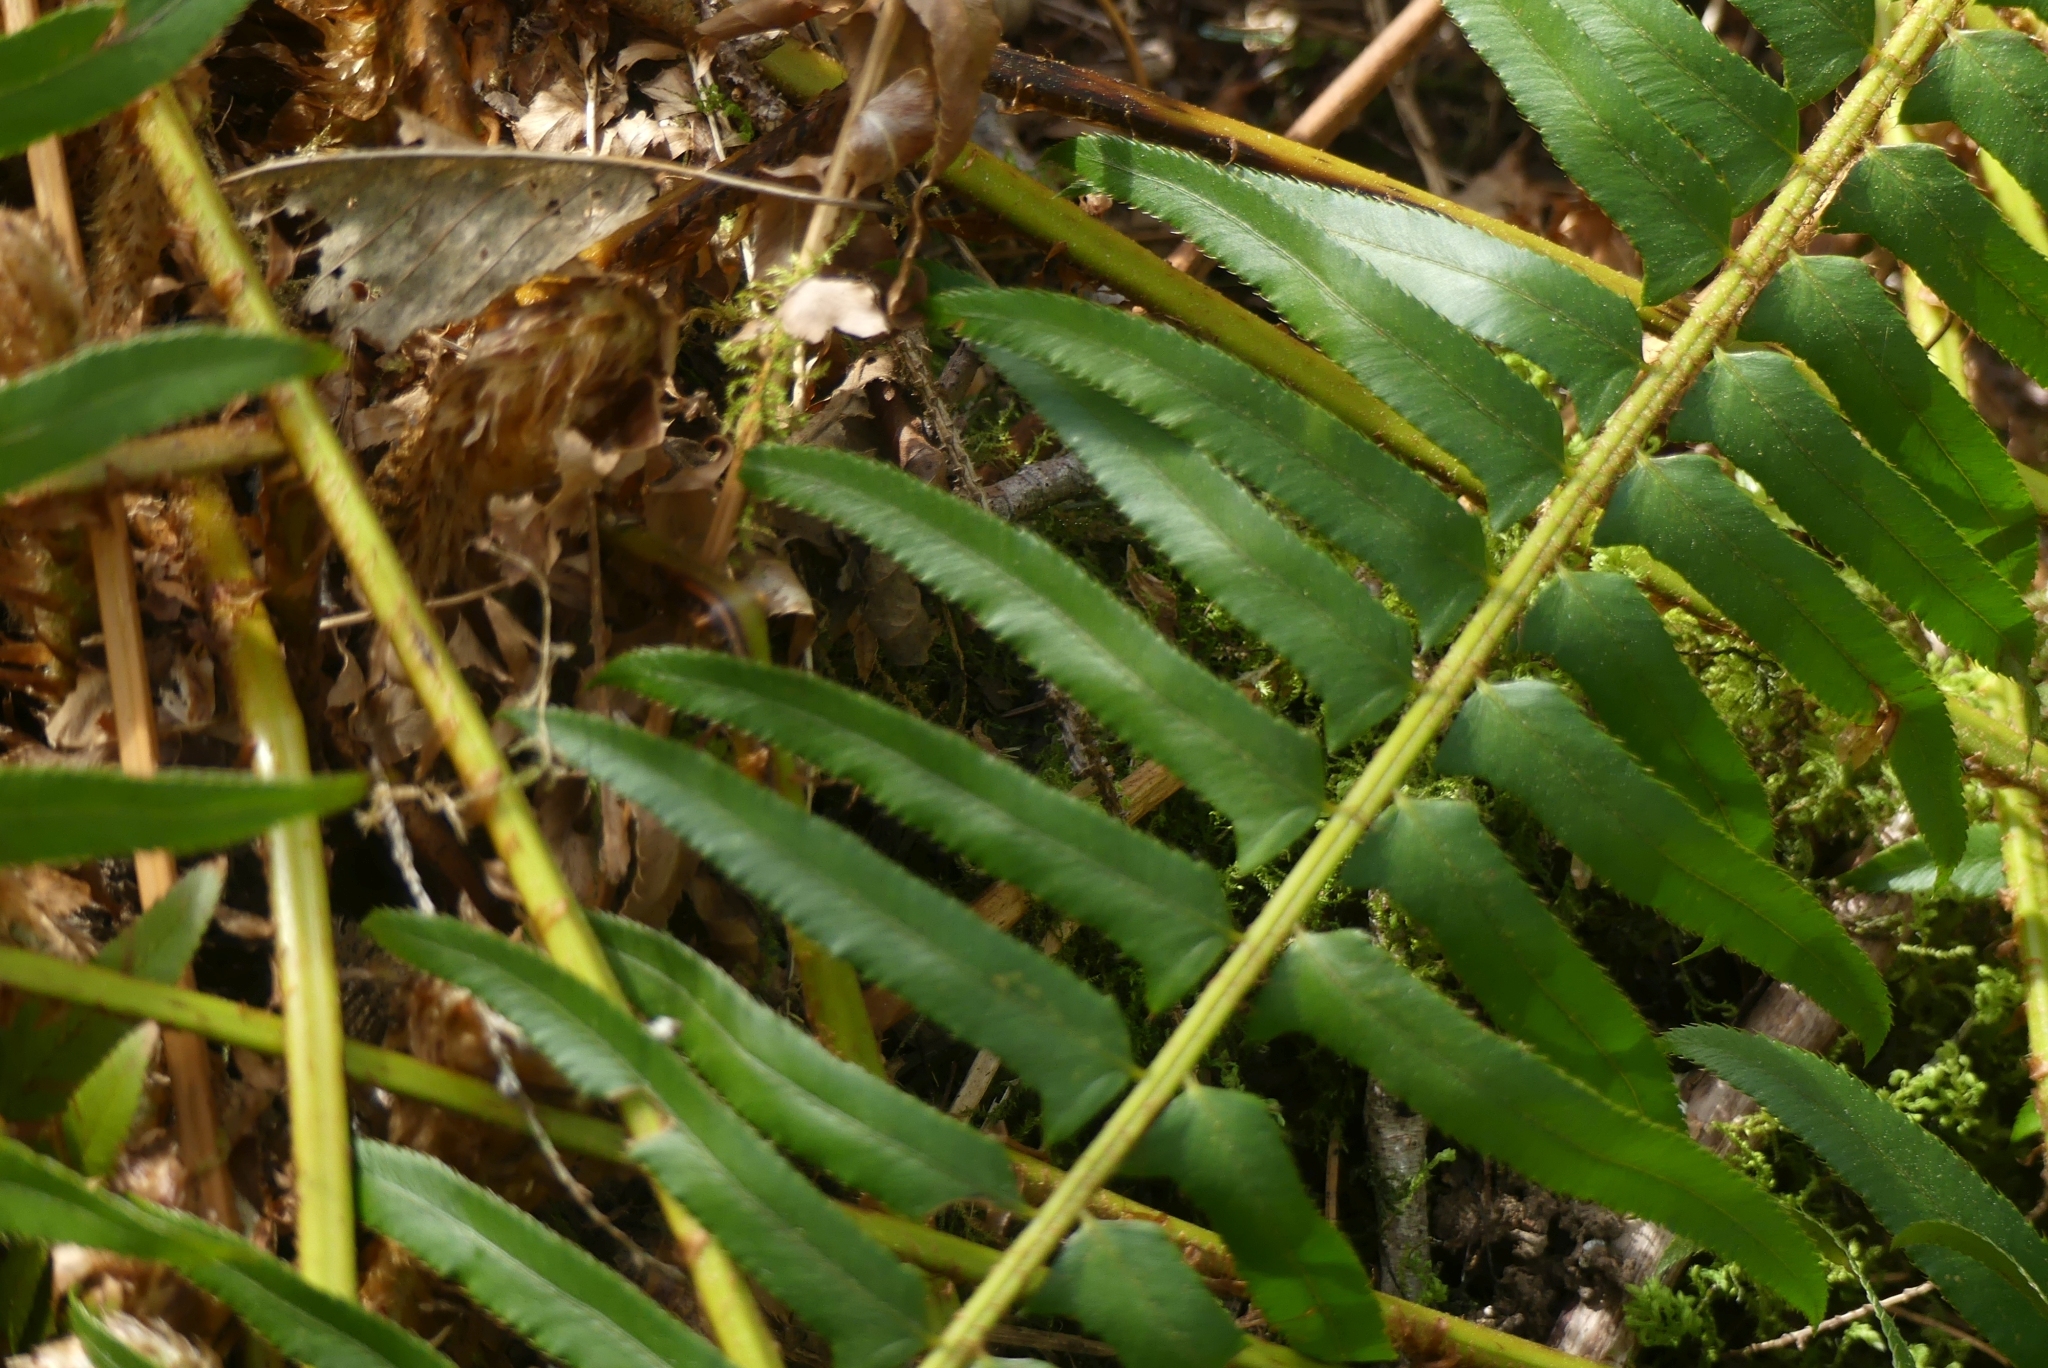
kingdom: Plantae
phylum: Tracheophyta
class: Polypodiopsida
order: Polypodiales
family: Dryopteridaceae
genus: Polystichum
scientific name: Polystichum munitum
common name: Western sword-fern
